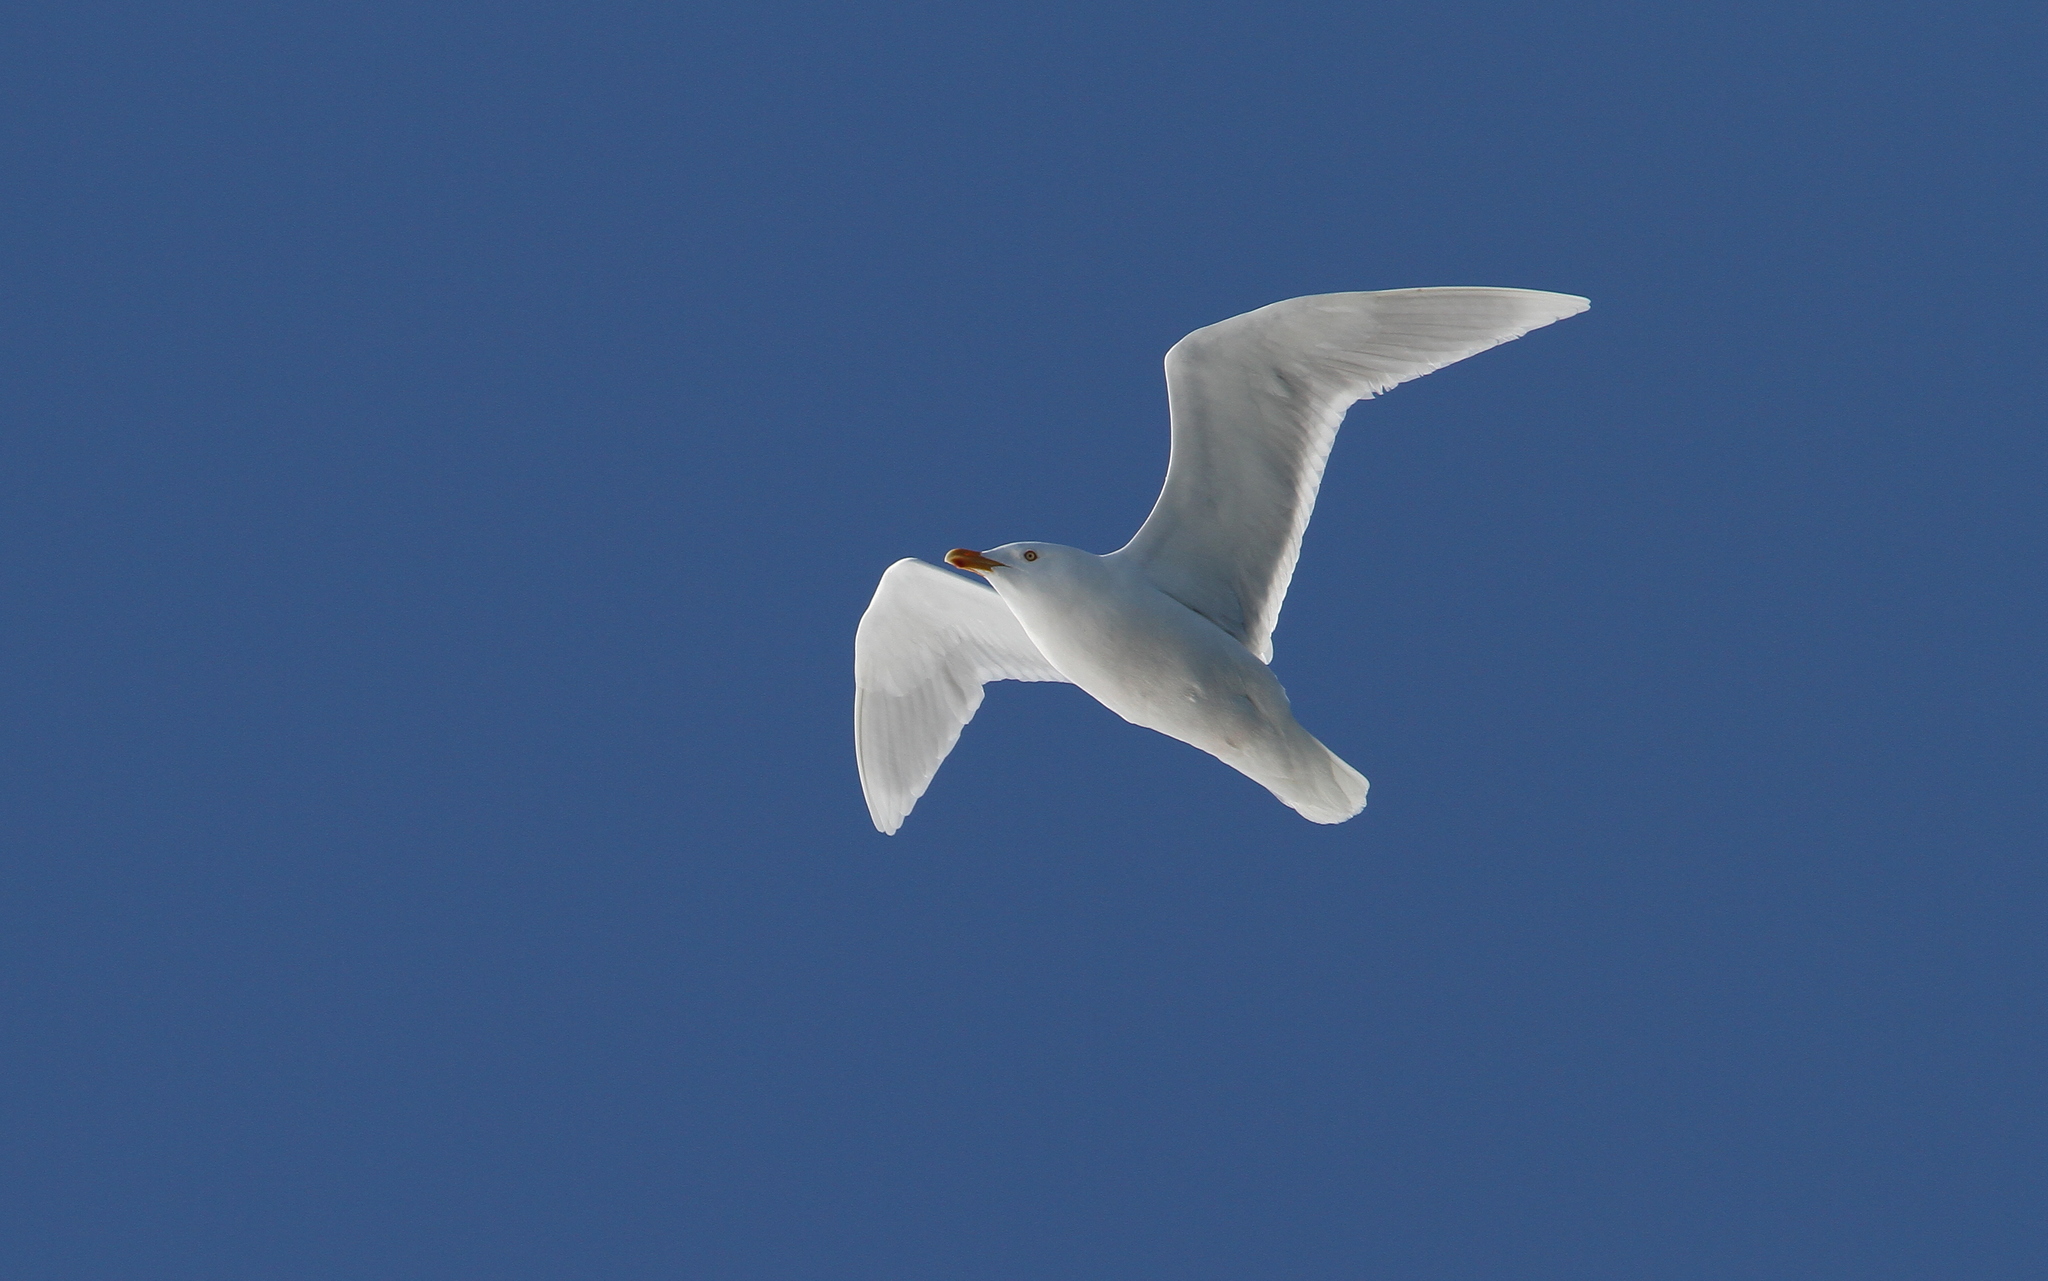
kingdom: Animalia
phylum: Chordata
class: Aves
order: Charadriiformes
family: Laridae
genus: Larus
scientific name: Larus hyperboreus
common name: Glaucous gull
